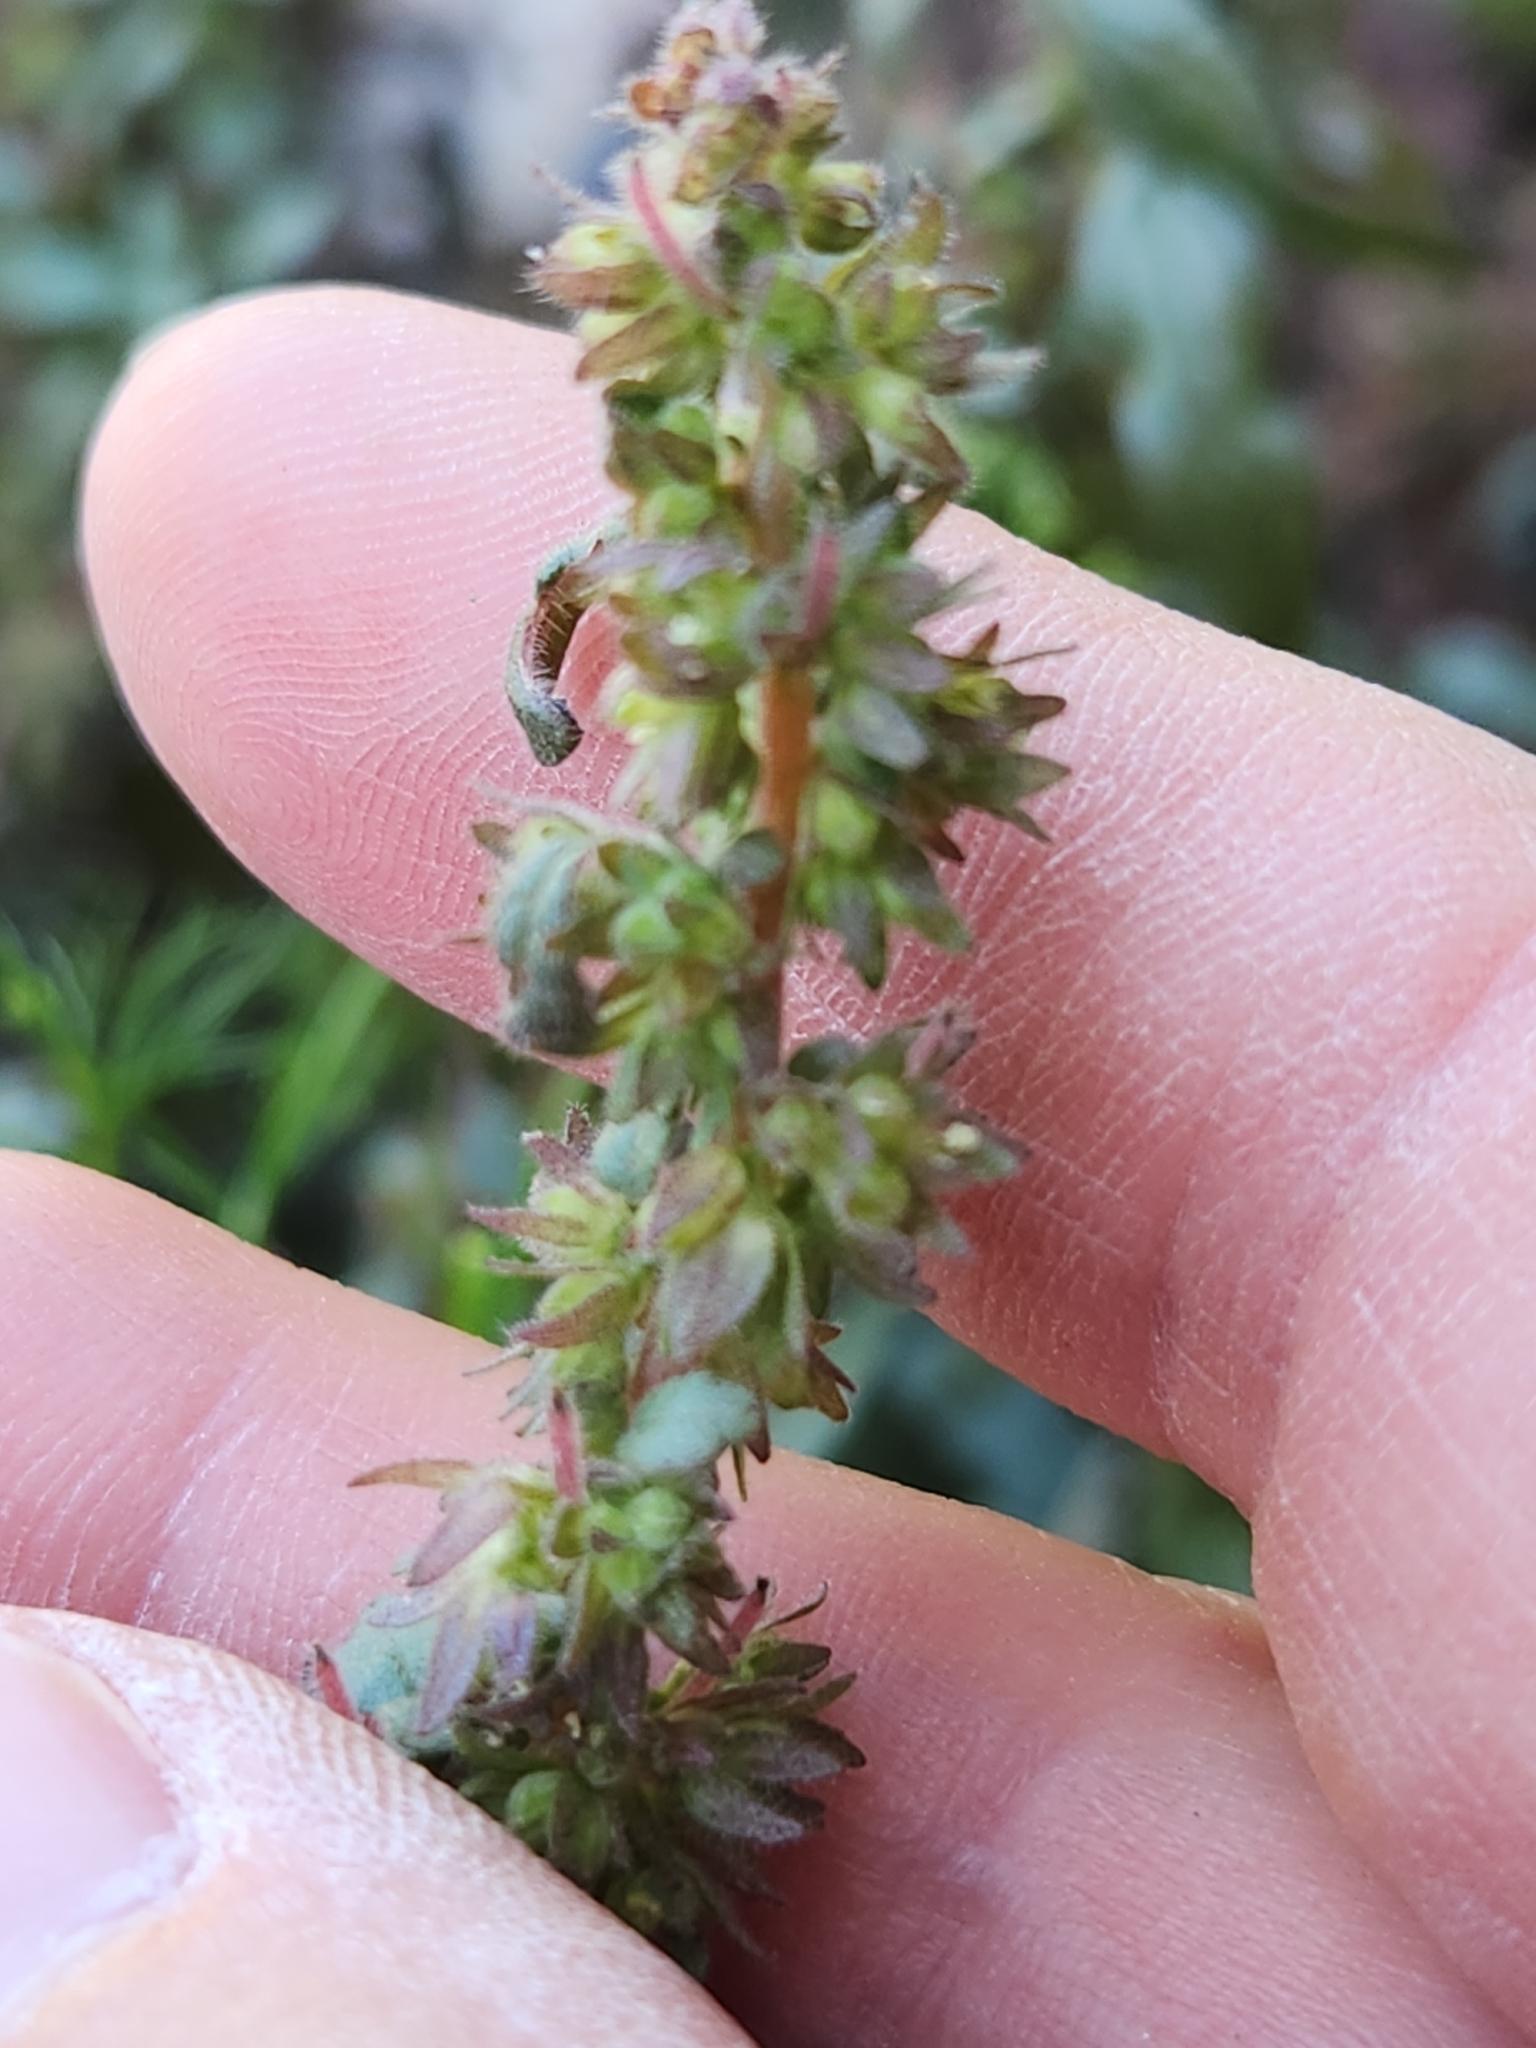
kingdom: Plantae
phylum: Tracheophyta
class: Magnoliopsida
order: Rosales
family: Urticaceae
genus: Parietaria
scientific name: Parietaria pensylvanica
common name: Pennsylvania pellitory
